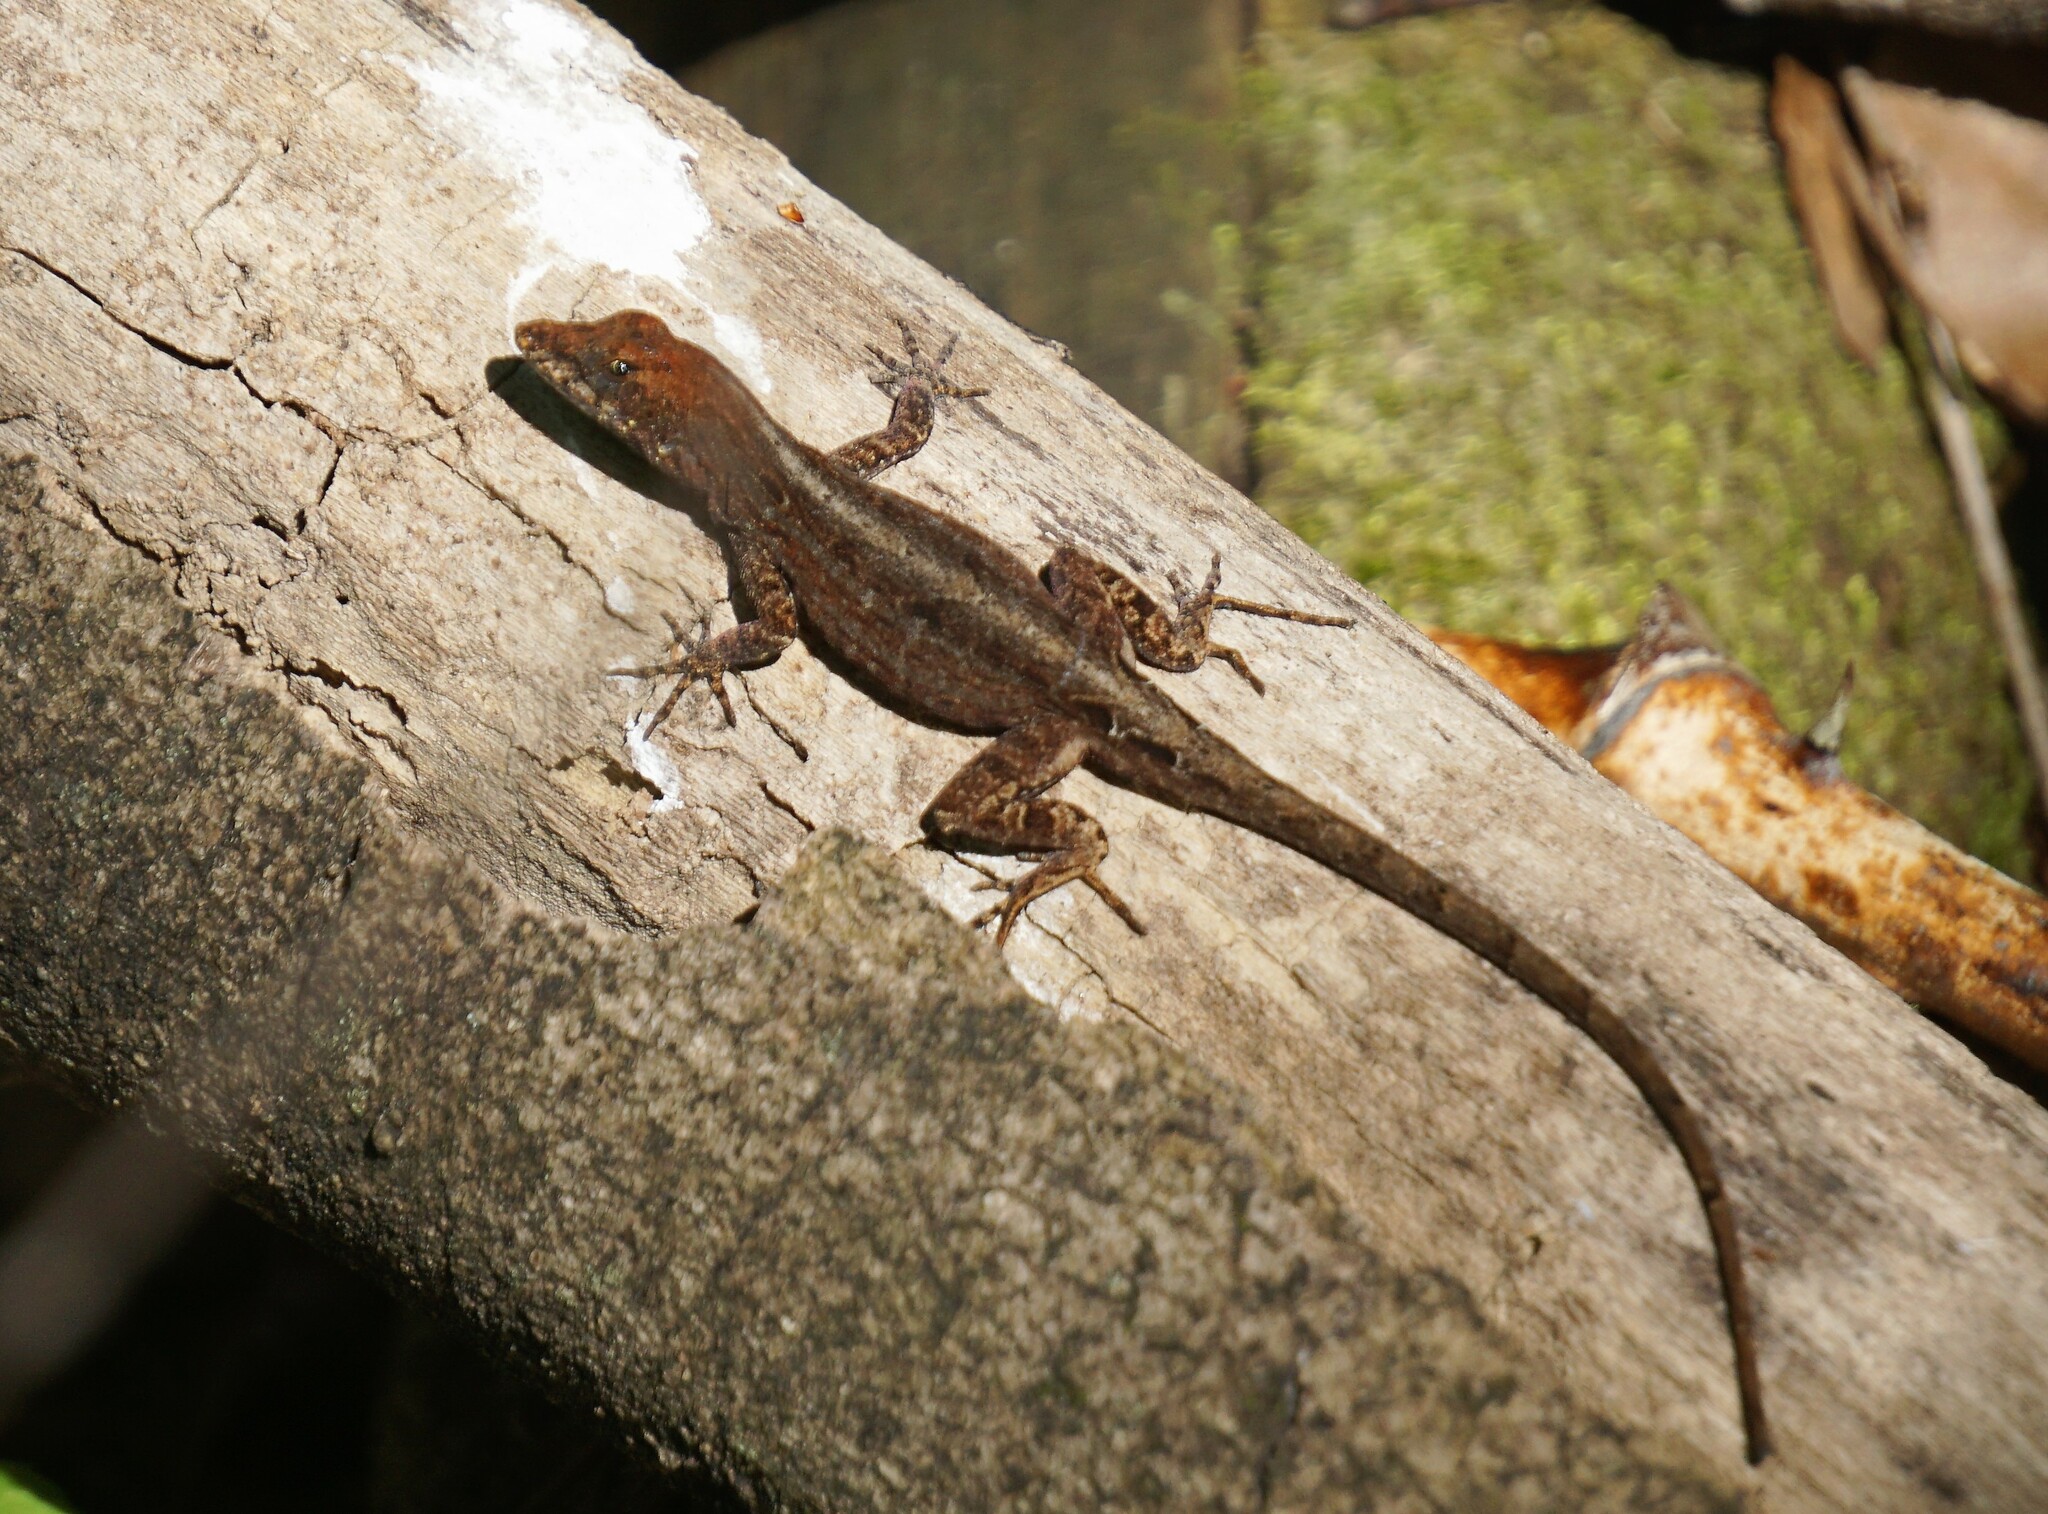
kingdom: Animalia
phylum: Chordata
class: Squamata
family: Dactyloidae
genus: Anolis
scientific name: Anolis sagrei
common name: Brown anole
